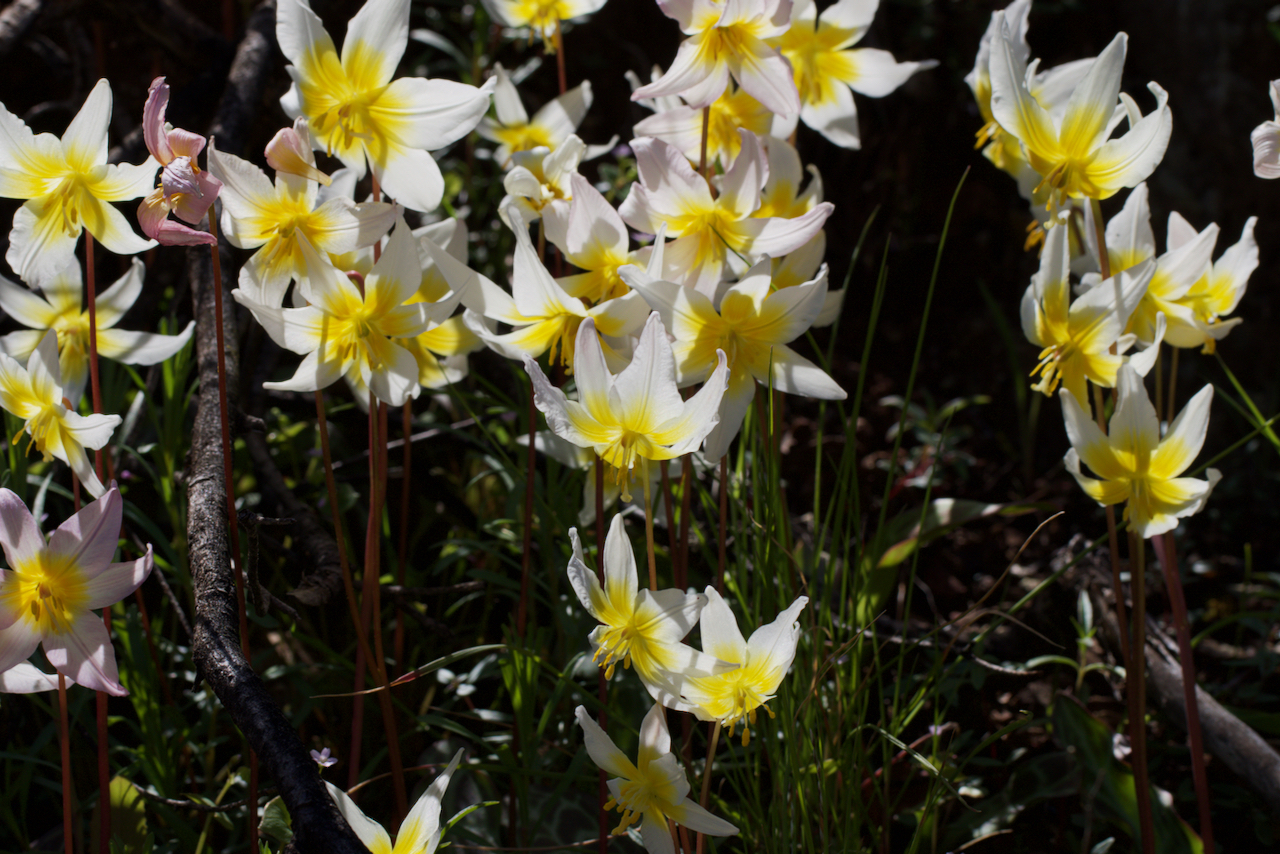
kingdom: Plantae
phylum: Tracheophyta
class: Liliopsida
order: Liliales
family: Liliaceae
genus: Erythronium
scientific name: Erythronium helenae
